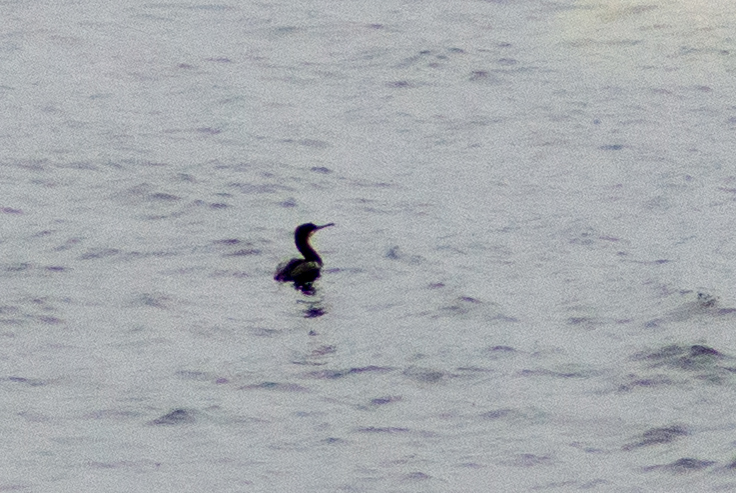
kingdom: Animalia
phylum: Chordata
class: Aves
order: Suliformes
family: Phalacrocoracidae
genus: Phalacrocorax
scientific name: Phalacrocorax aristotelis
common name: European shag
